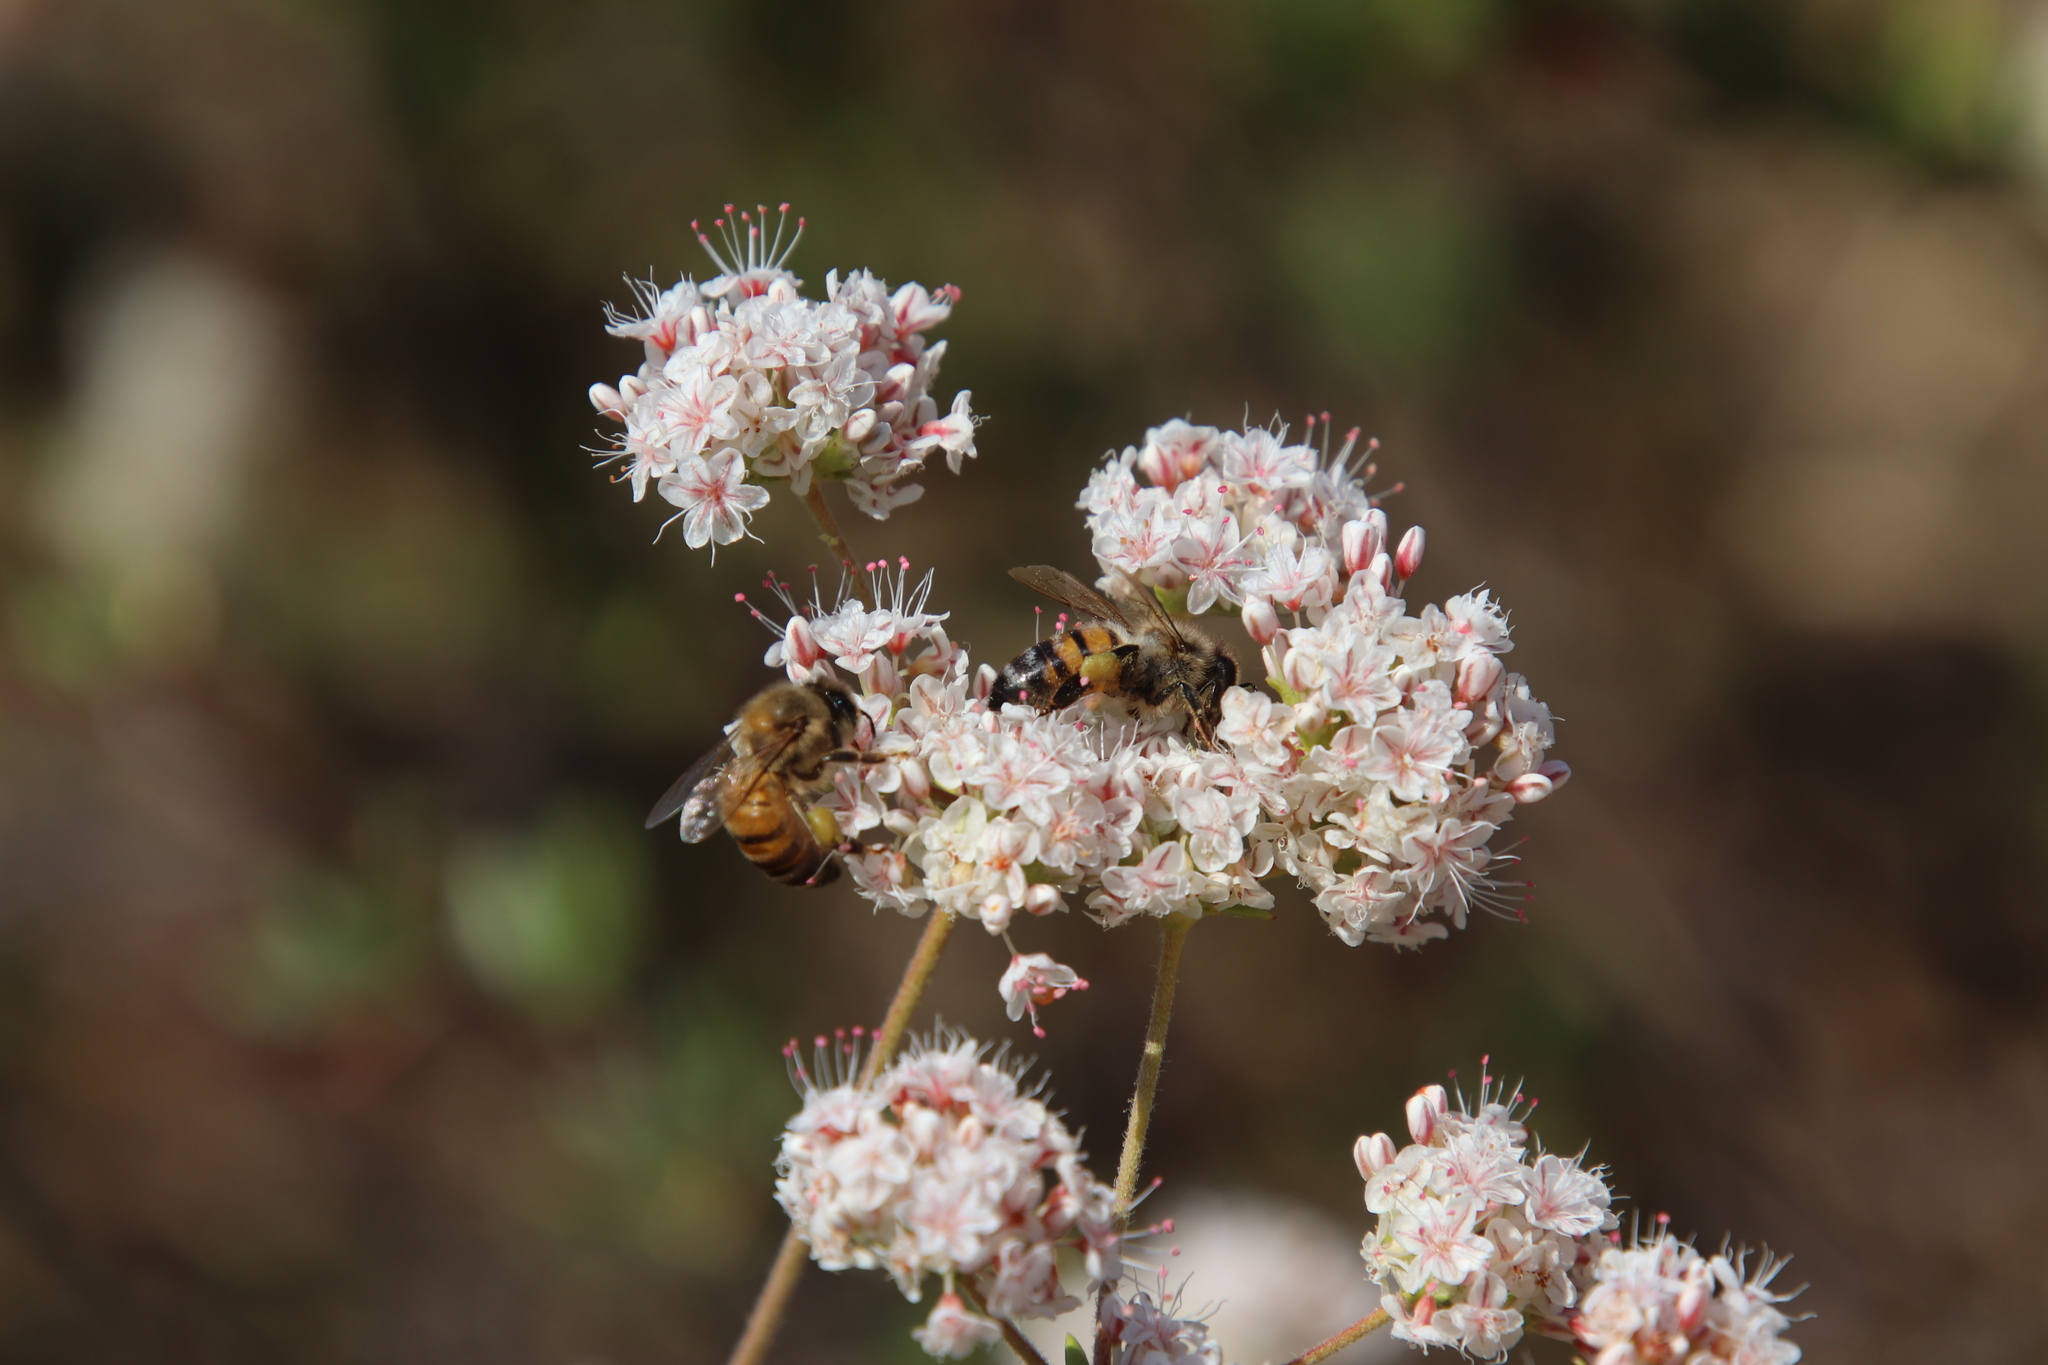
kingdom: Animalia
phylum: Arthropoda
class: Insecta
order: Hymenoptera
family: Apidae
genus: Apis
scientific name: Apis mellifera
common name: Honey bee
